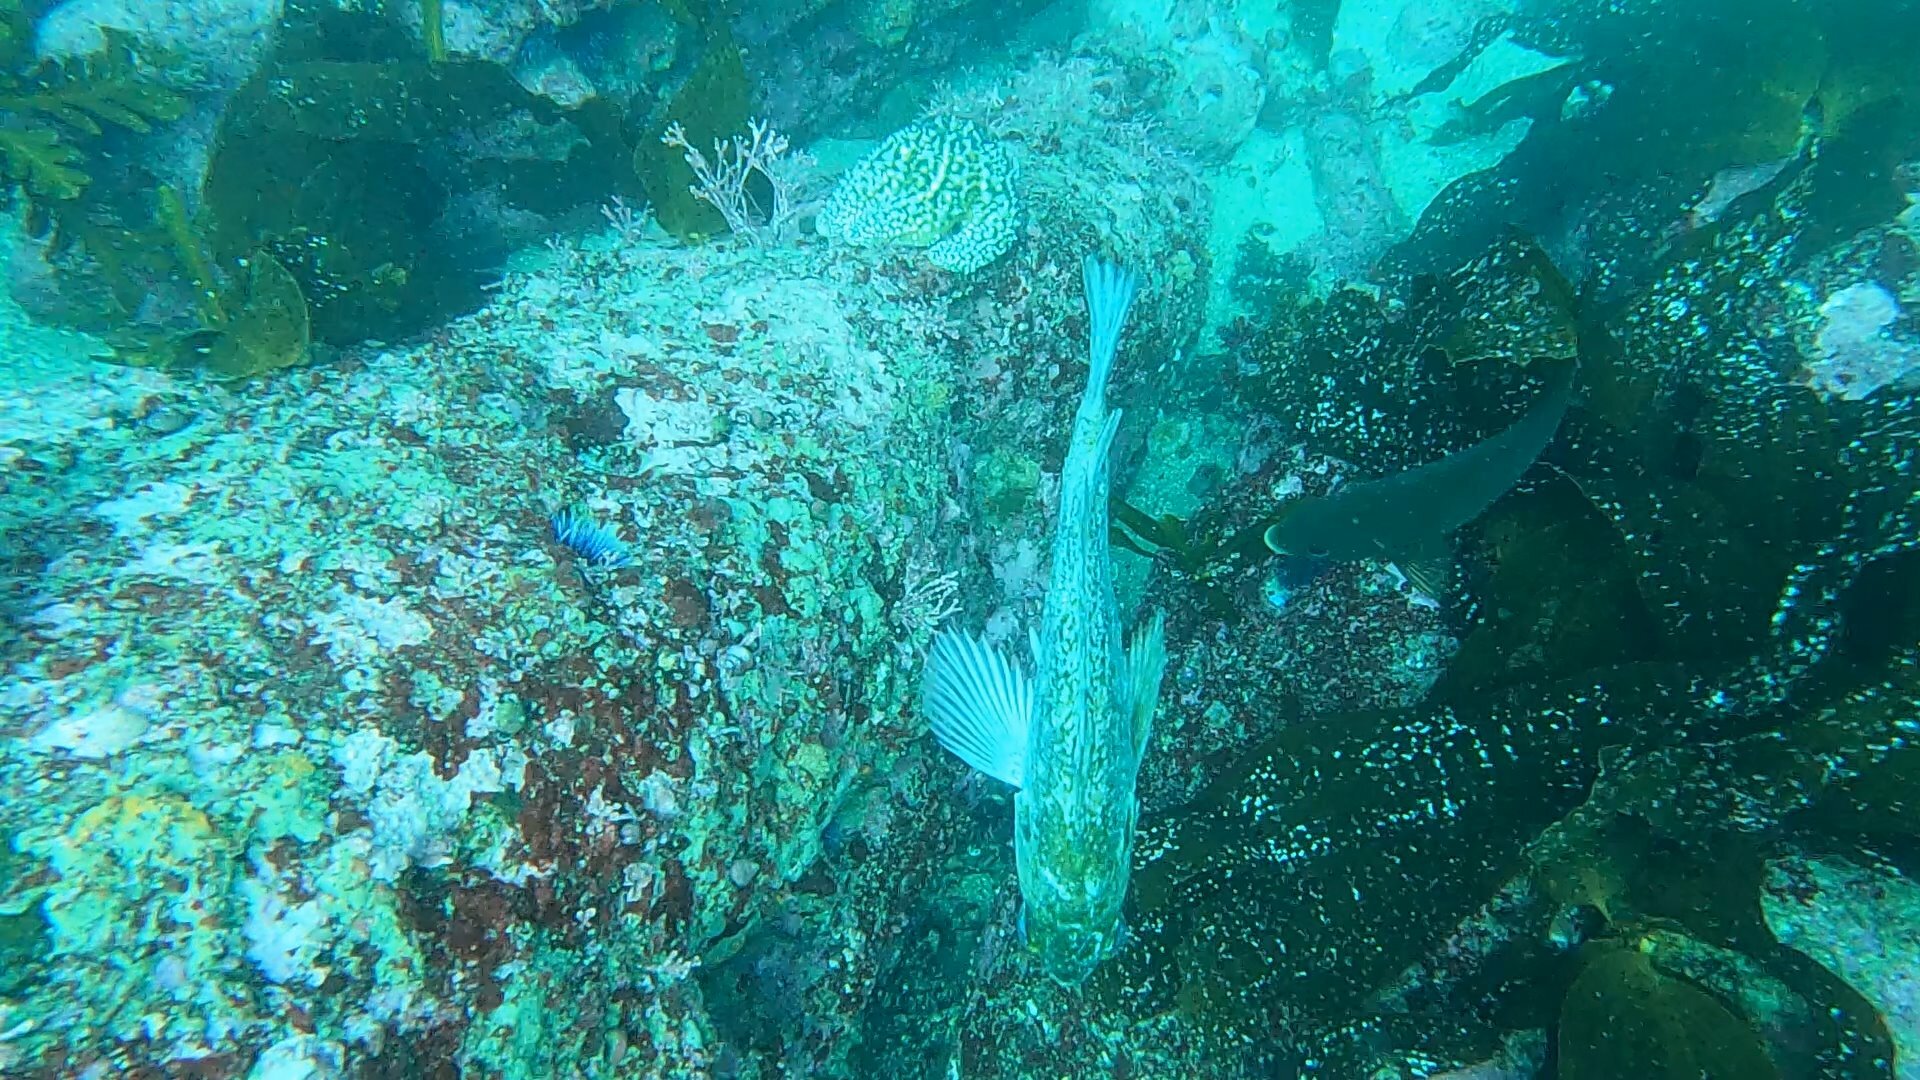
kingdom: Animalia
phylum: Chordata
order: Scorpaeniformes
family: Sebastidae
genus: Sebastes
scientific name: Sebastes atrovirens
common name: Kelp rockfish
